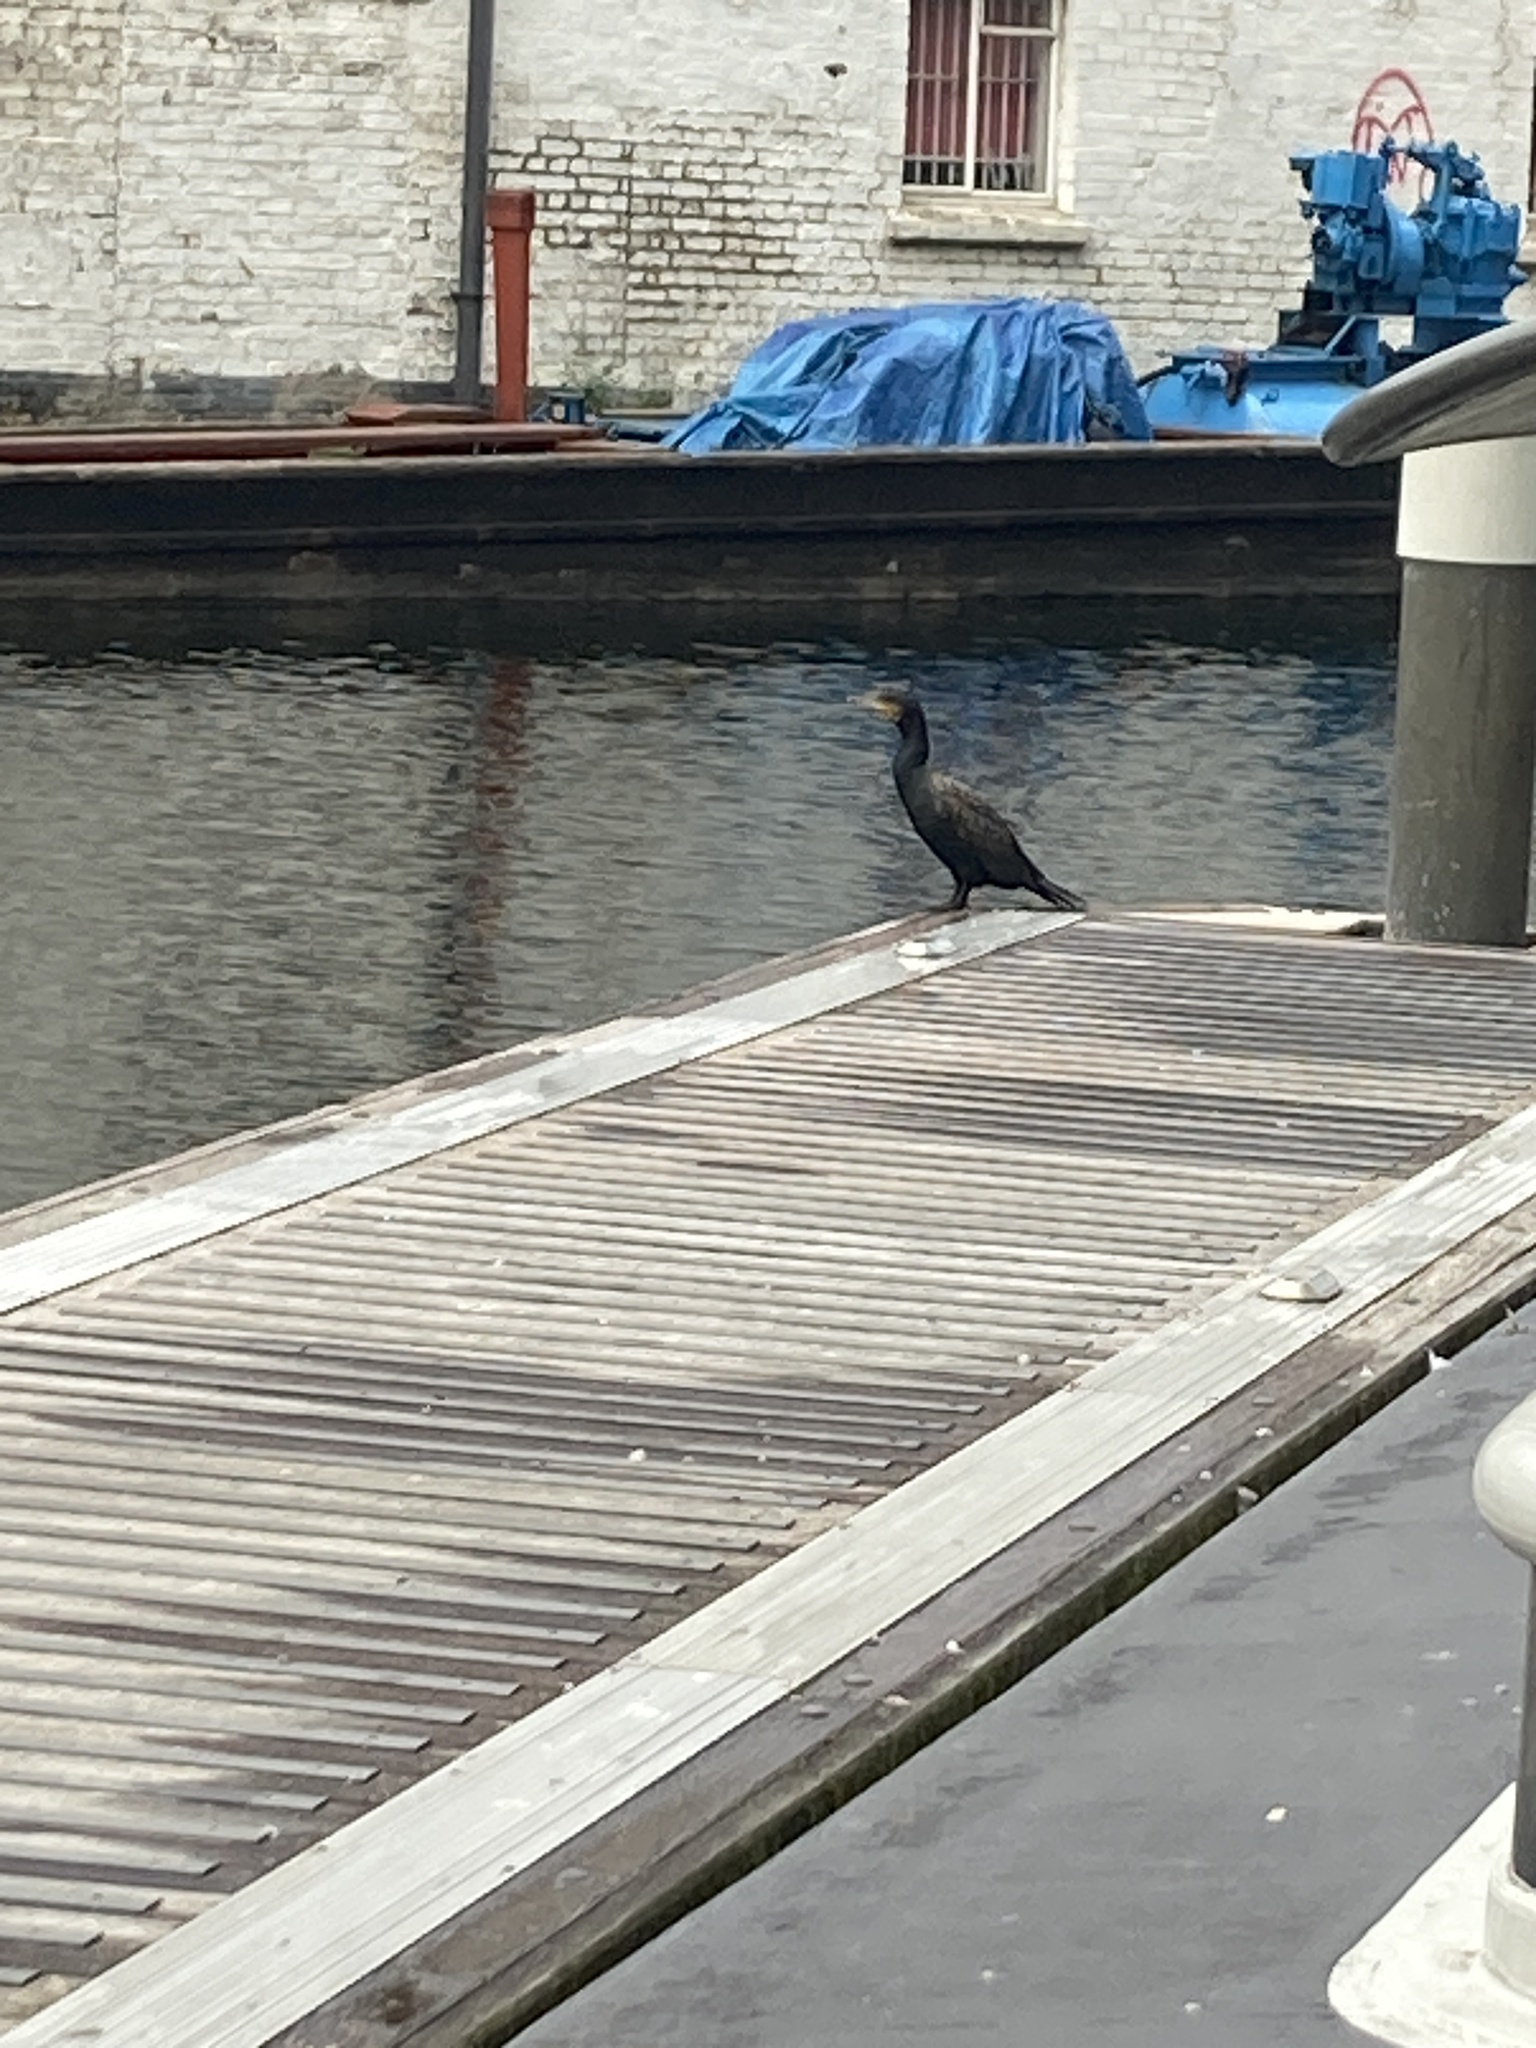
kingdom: Animalia
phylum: Chordata
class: Aves
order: Suliformes
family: Phalacrocoracidae
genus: Phalacrocorax
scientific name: Phalacrocorax carbo
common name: Great cormorant
